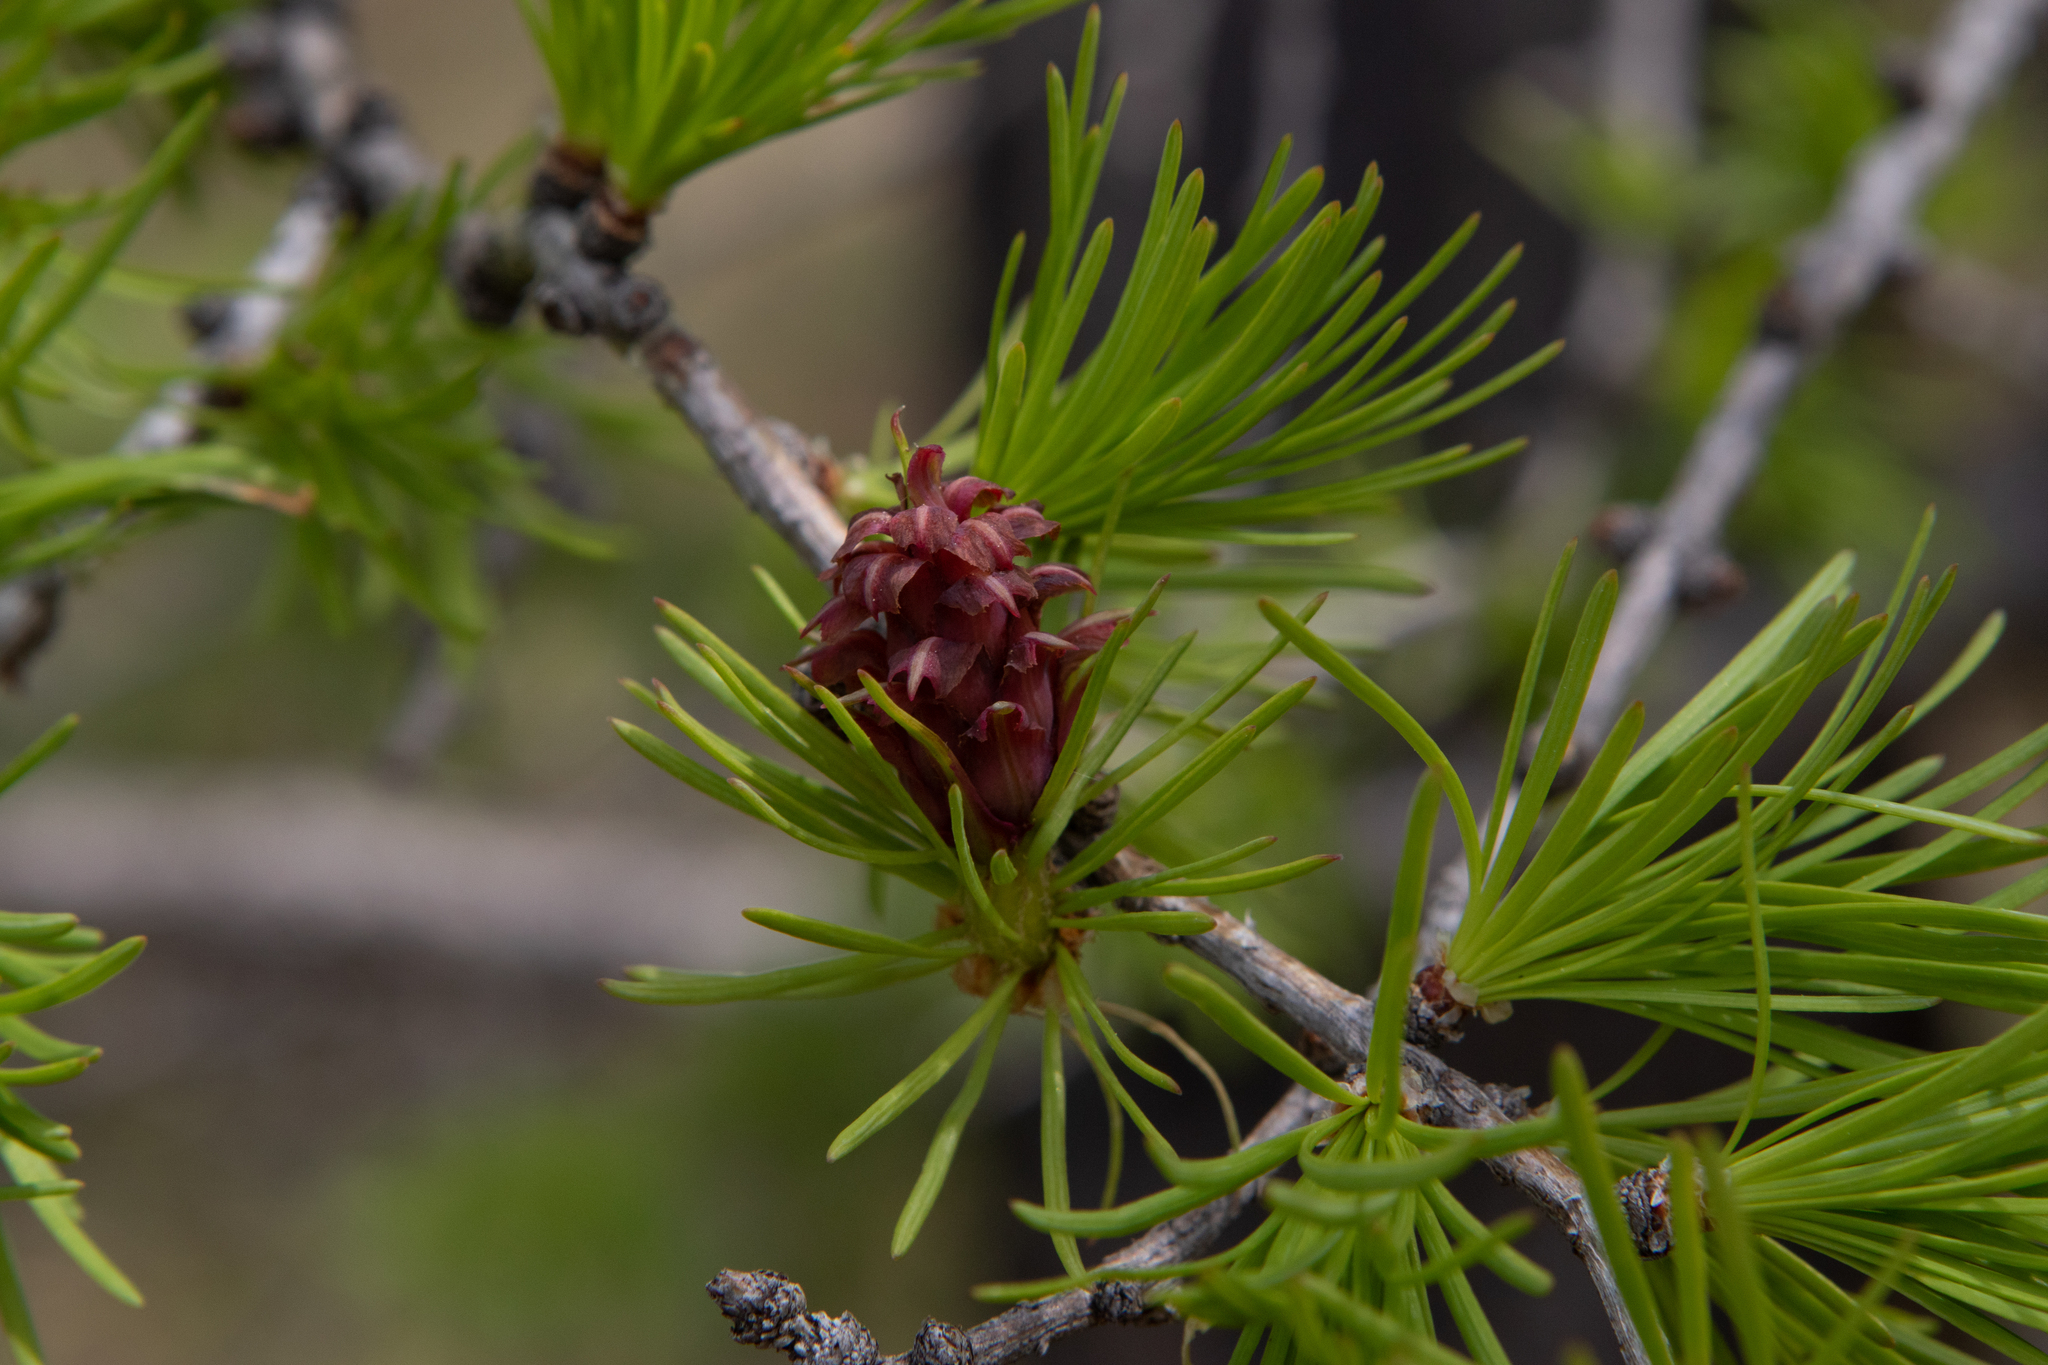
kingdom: Plantae
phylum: Tracheophyta
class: Pinopsida
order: Pinales
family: Pinaceae
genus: Larix
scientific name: Larix sibirica
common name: Siberian larch
